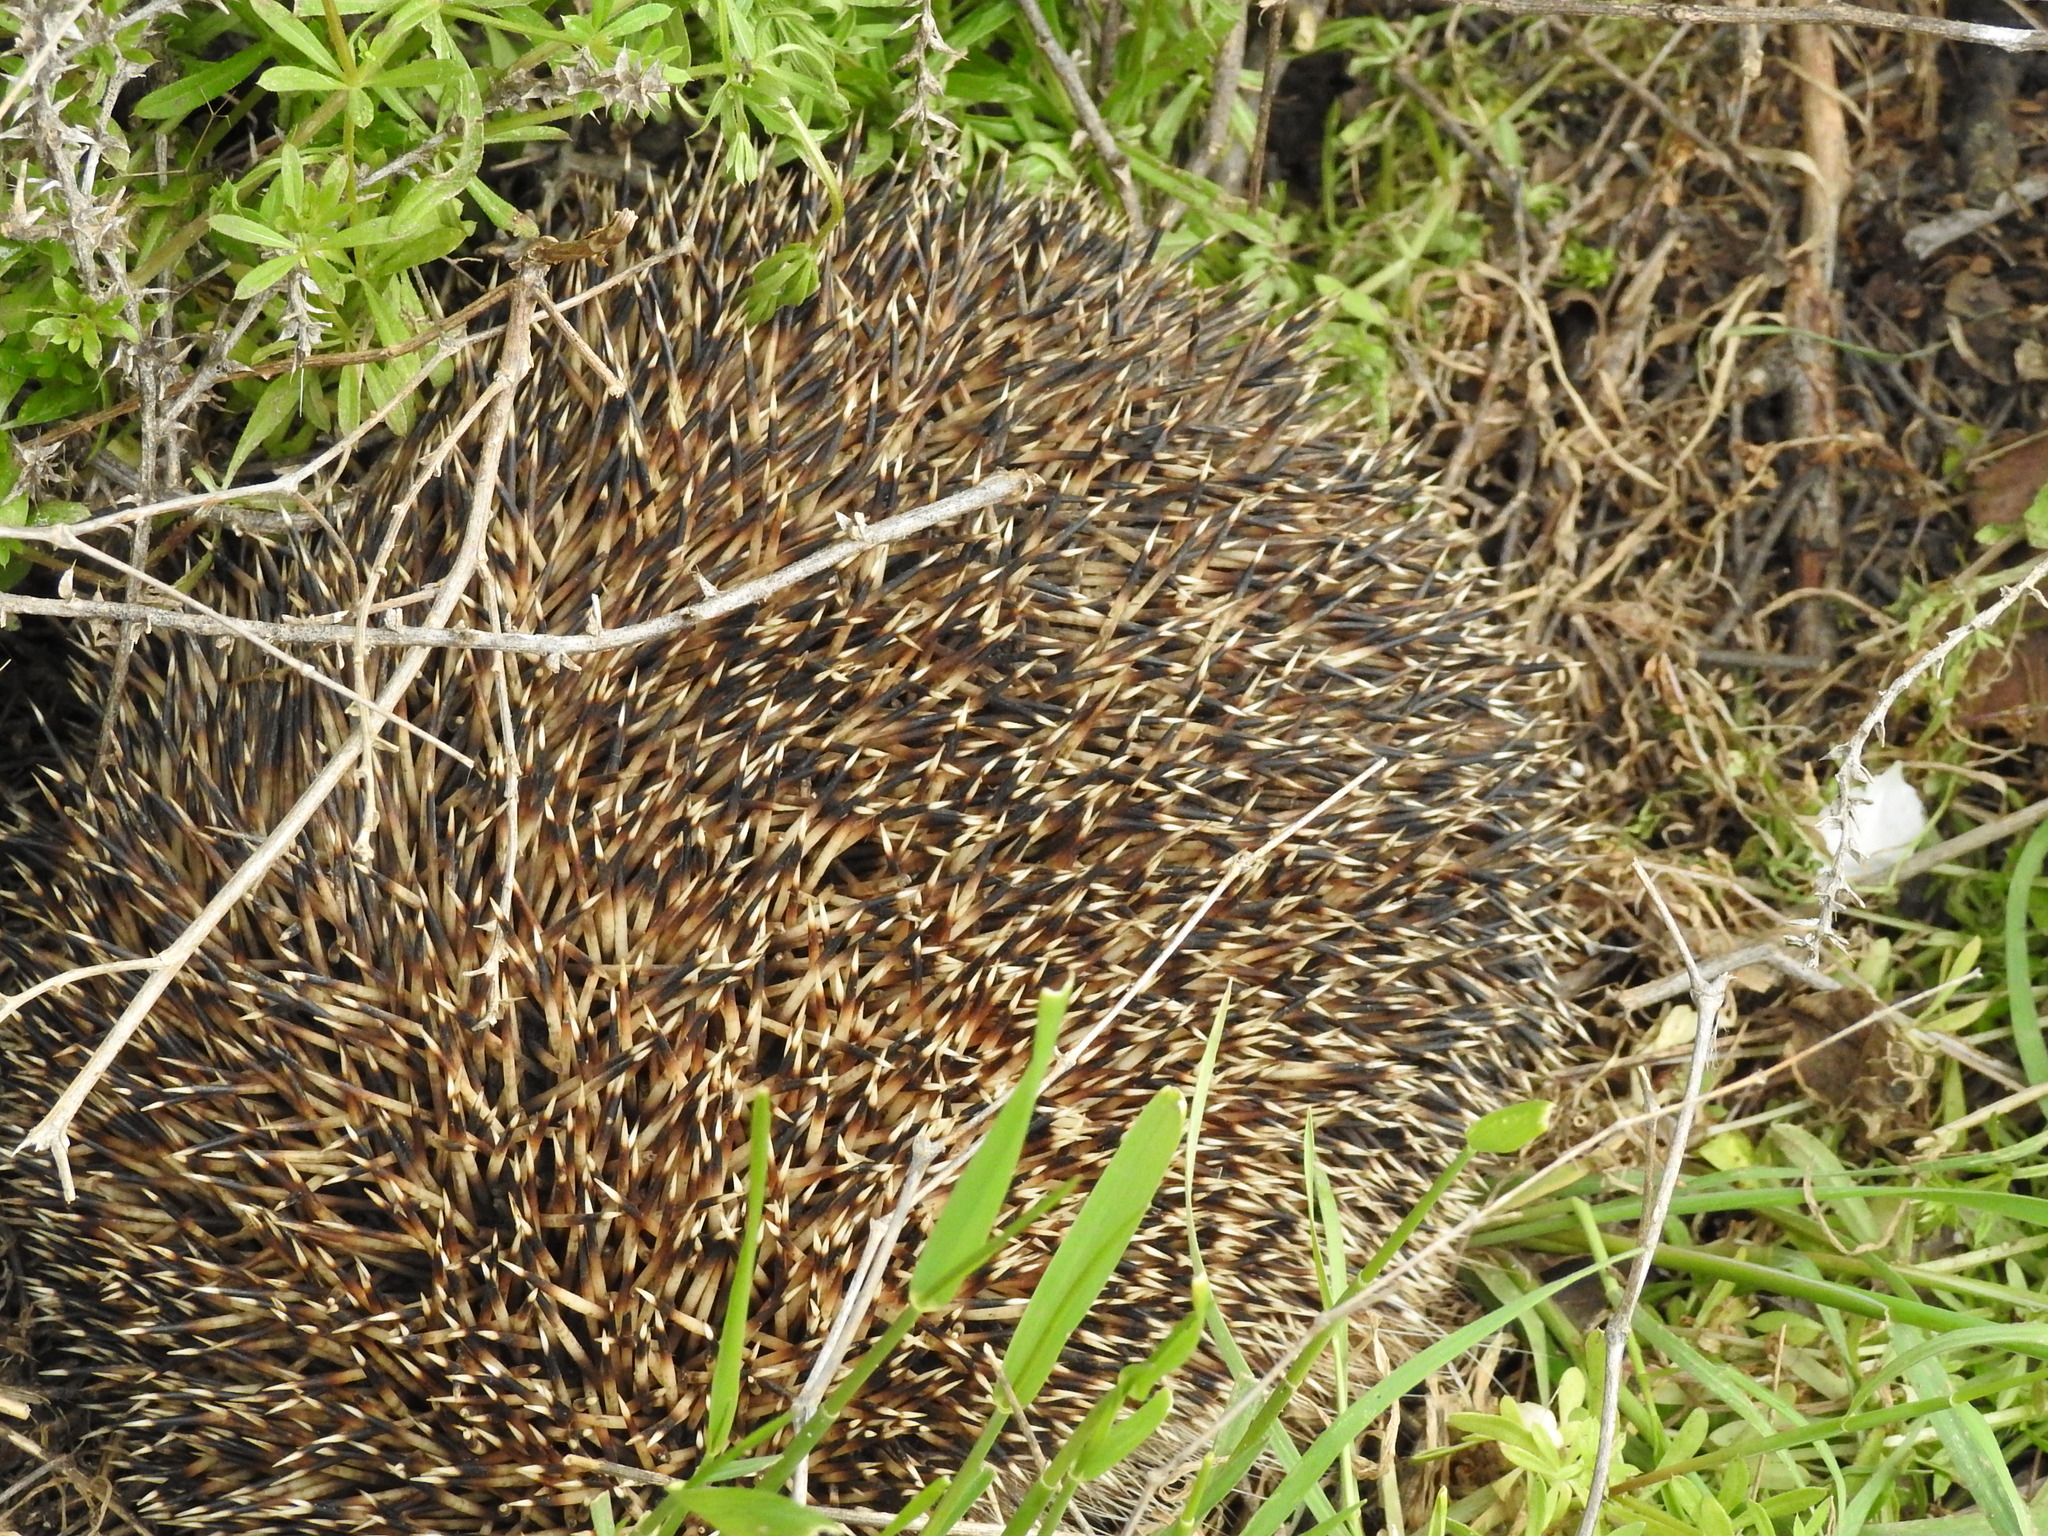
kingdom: Animalia
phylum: Chordata
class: Mammalia
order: Erinaceomorpha
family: Erinaceidae
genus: Erinaceus
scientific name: Erinaceus roumanicus
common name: Northern white-breasted hedgehog
